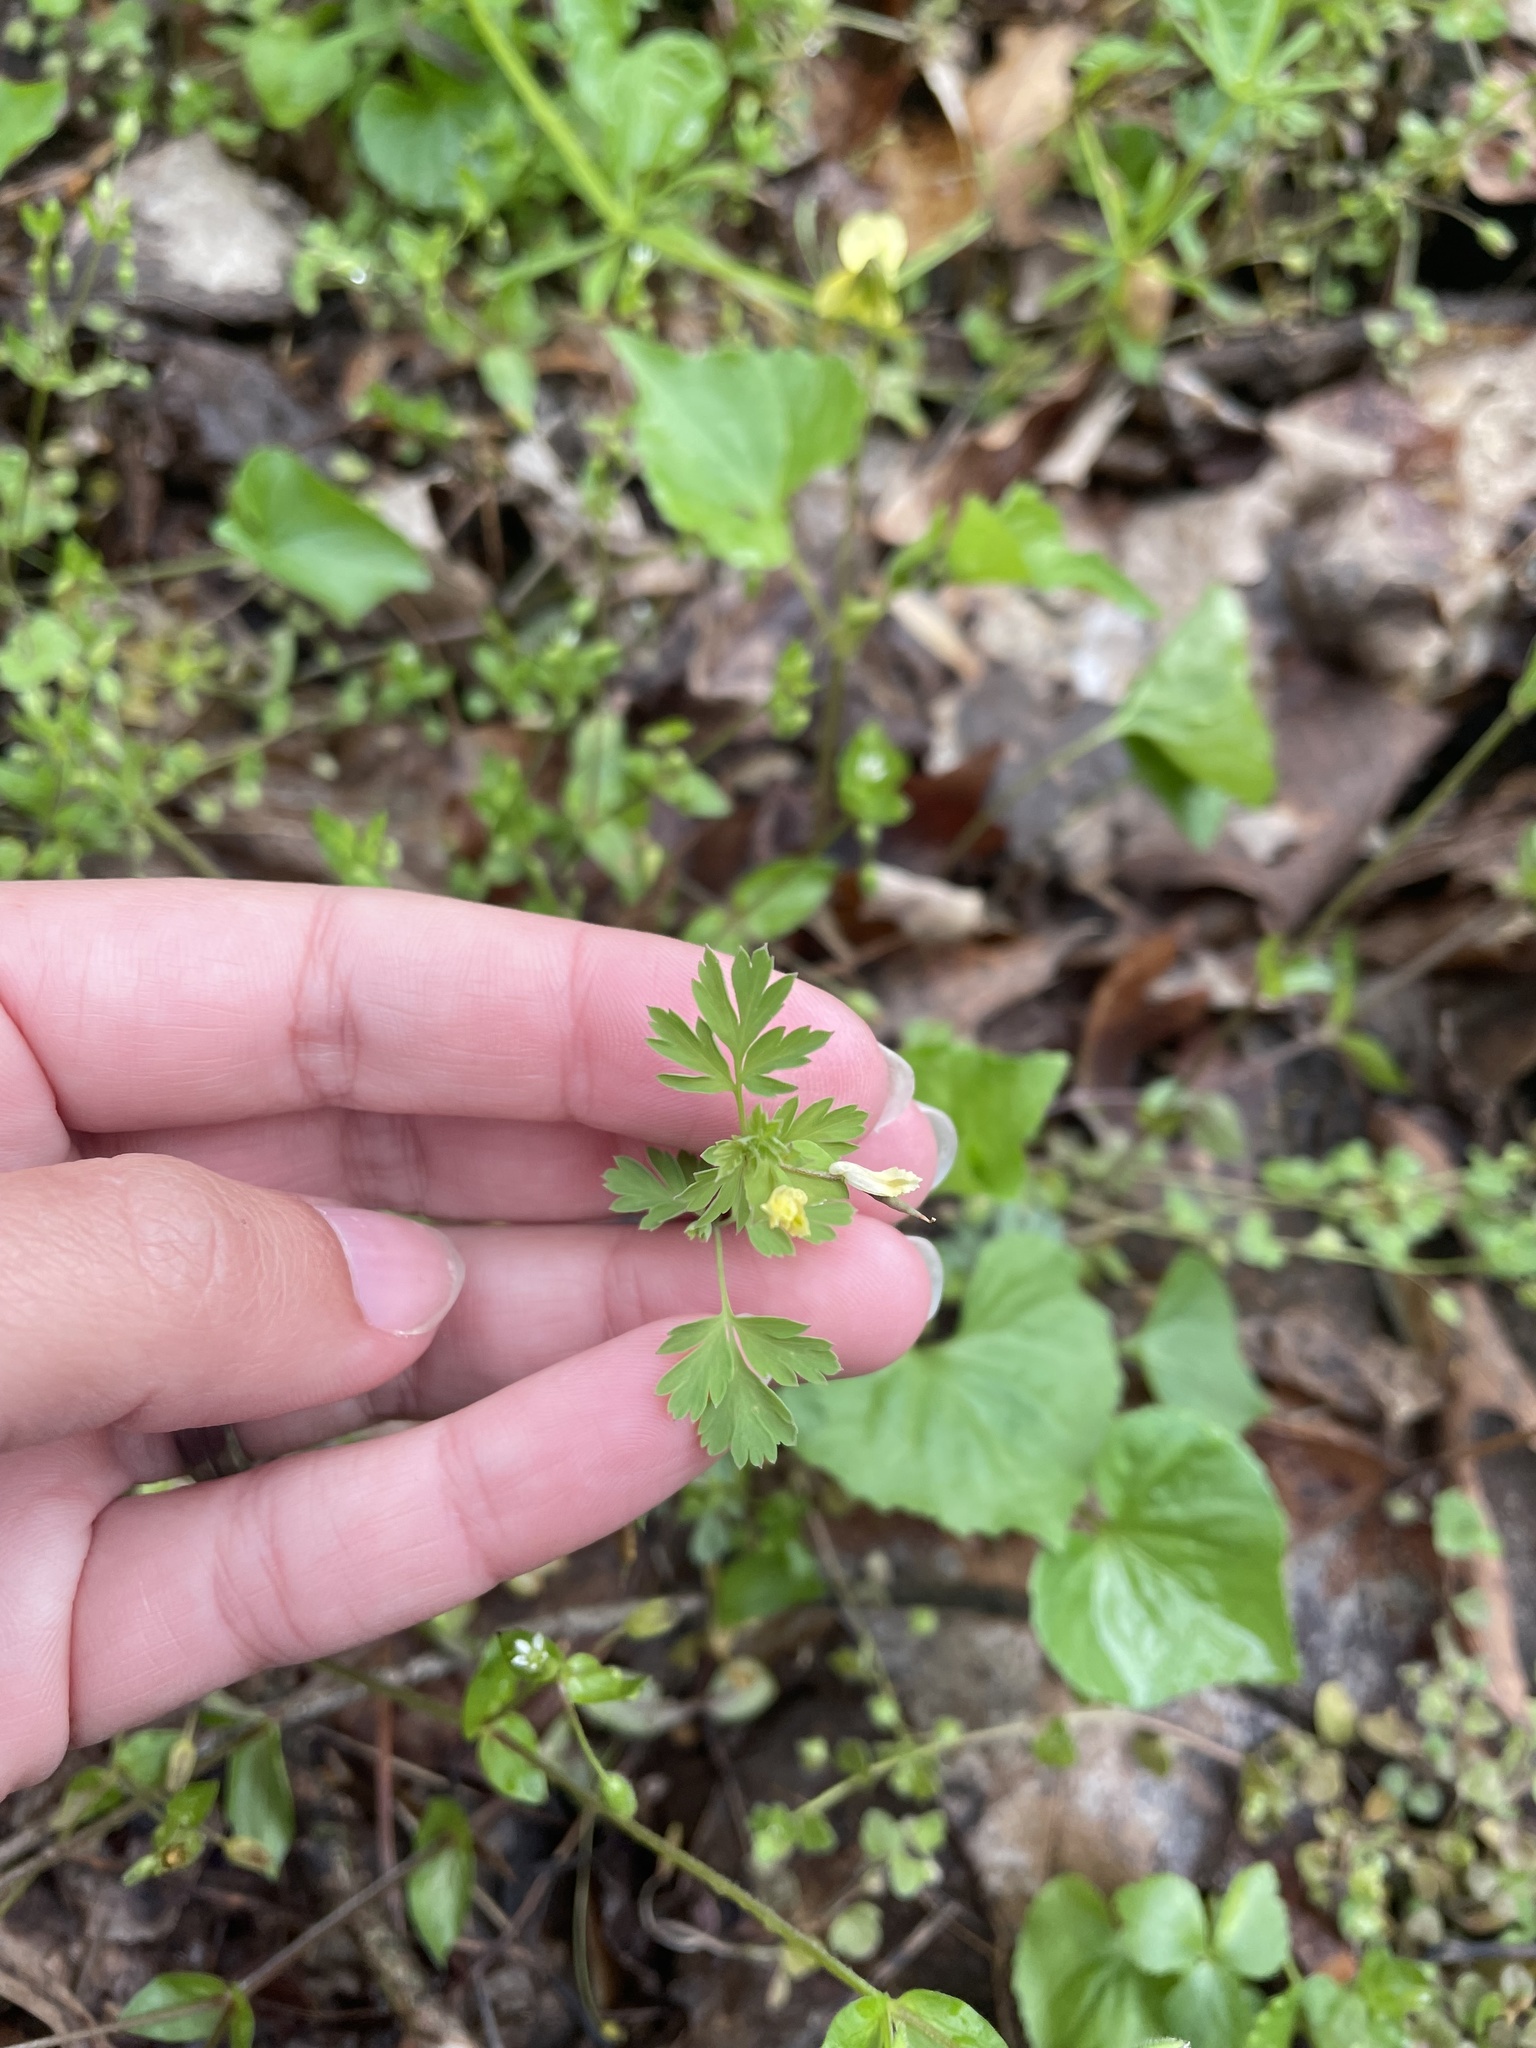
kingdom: Plantae
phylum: Tracheophyta
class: Magnoliopsida
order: Ranunculales
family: Papaveraceae
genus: Corydalis
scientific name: Corydalis flavula
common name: Yellow corydalis
